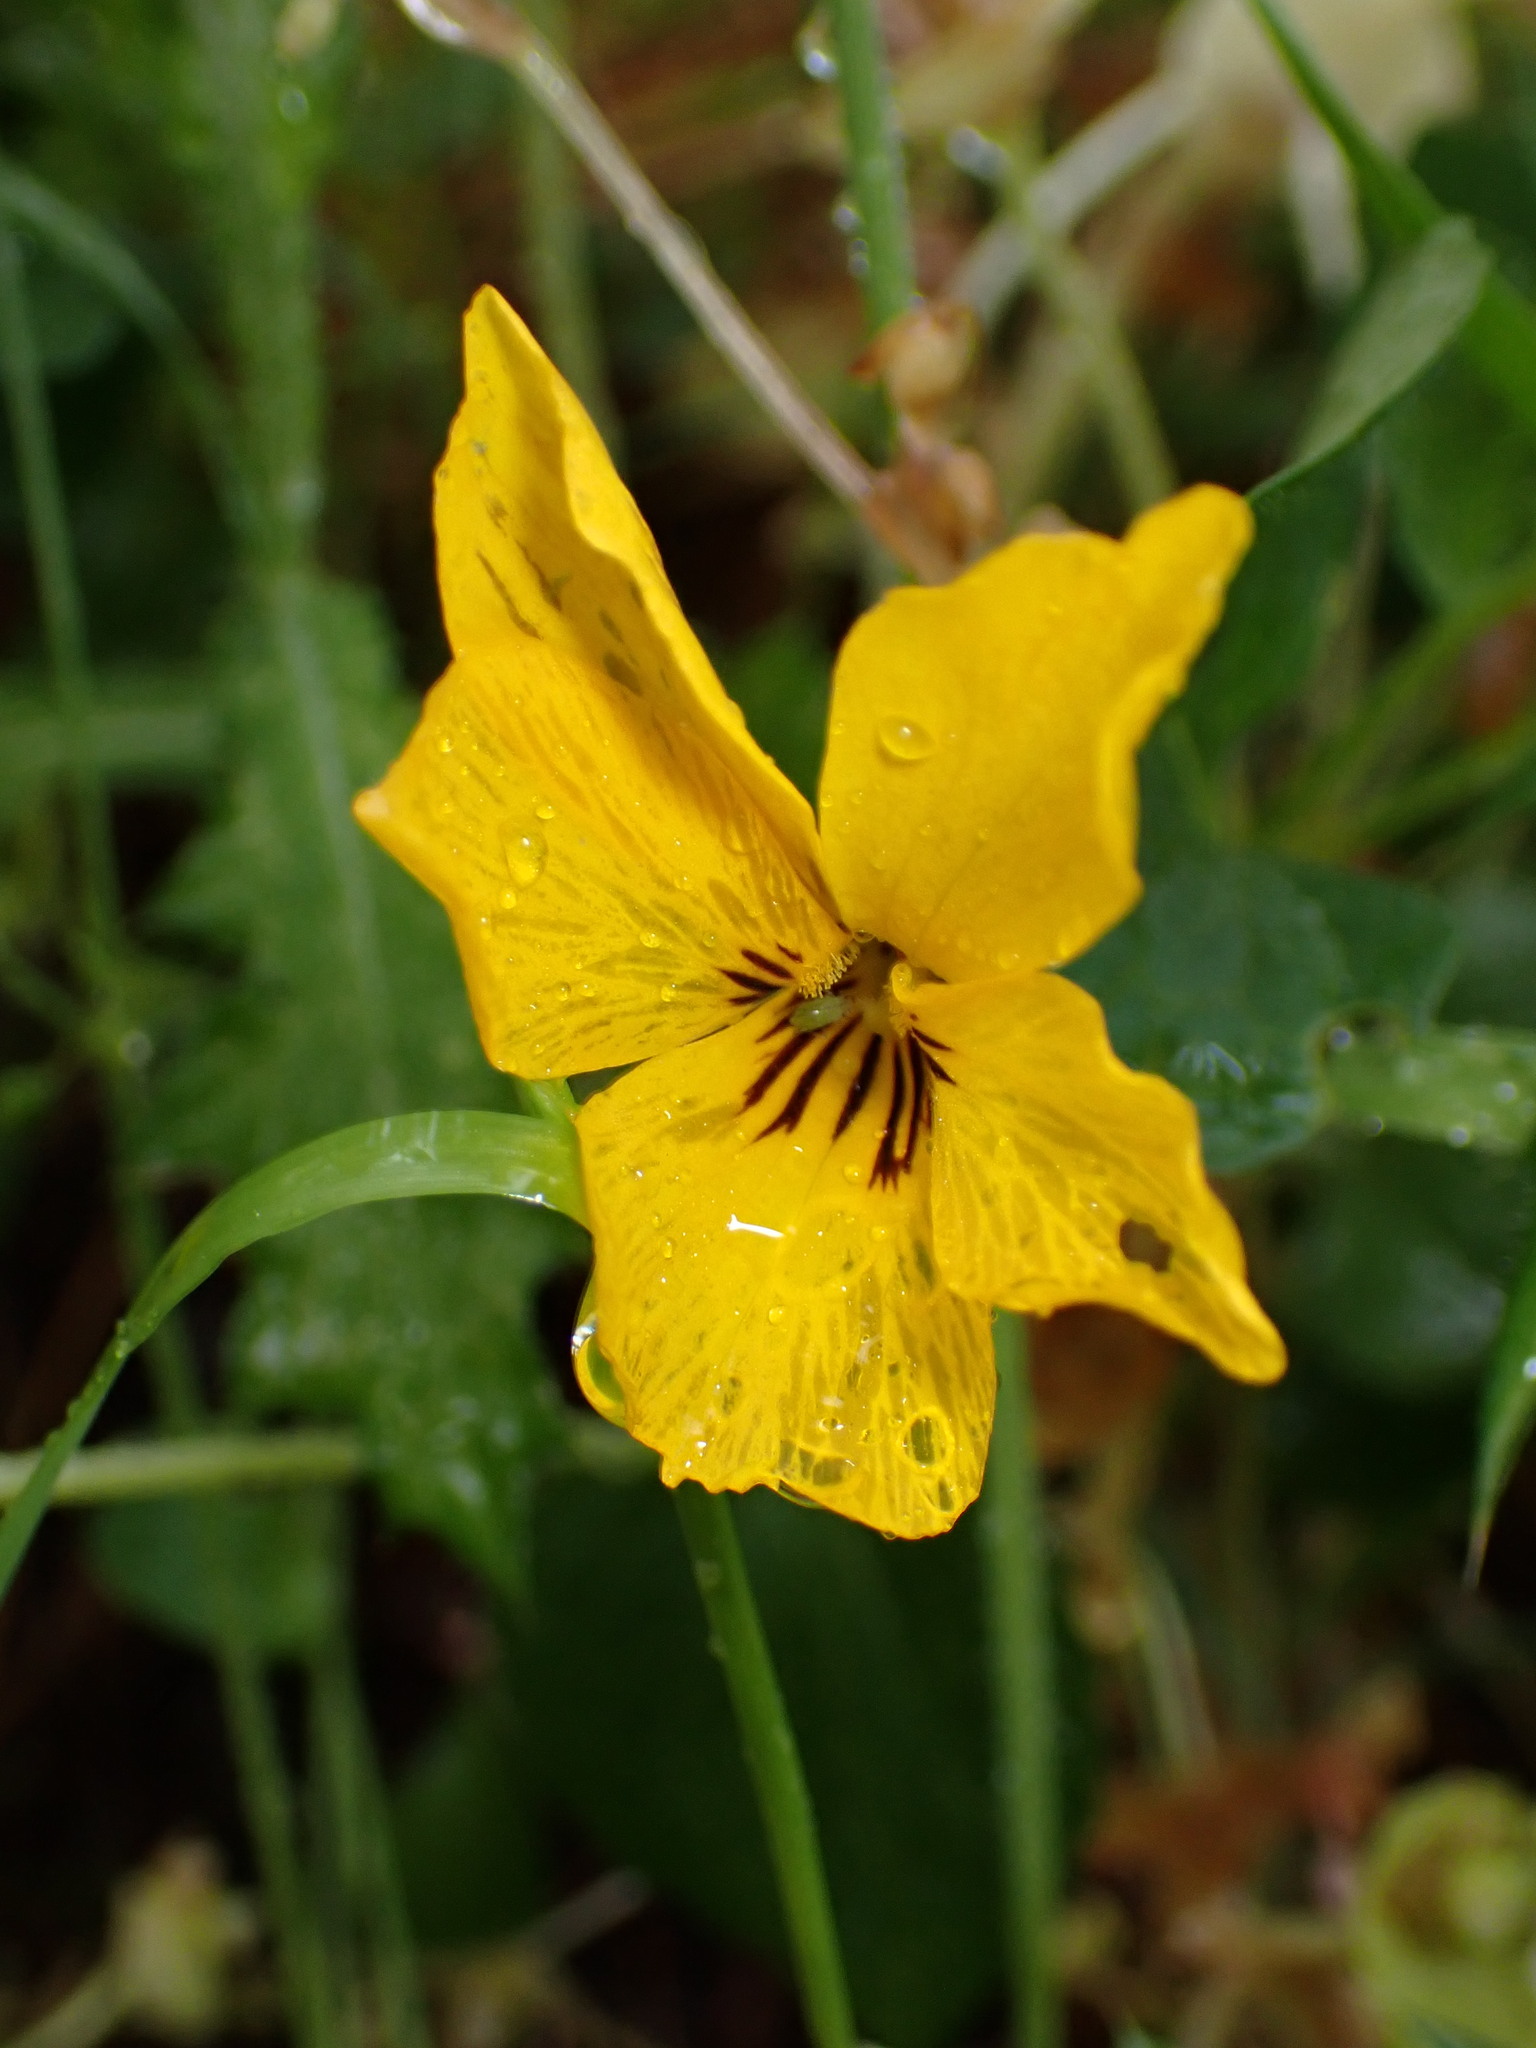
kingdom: Plantae
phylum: Tracheophyta
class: Magnoliopsida
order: Malpighiales
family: Violaceae
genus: Viola
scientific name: Viola pedunculata
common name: California golden violet
